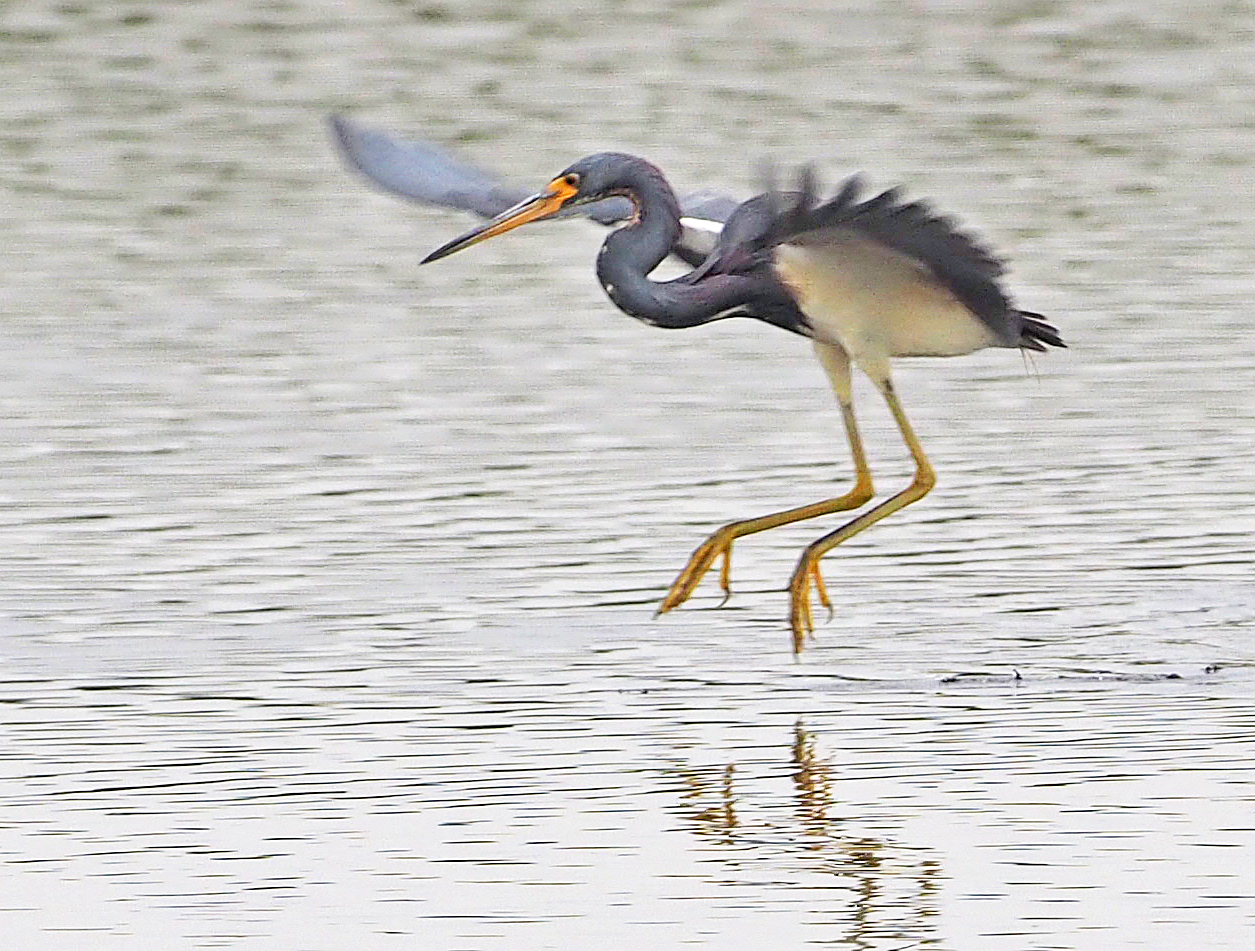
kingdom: Animalia
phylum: Chordata
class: Aves
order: Pelecaniformes
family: Ardeidae
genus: Egretta
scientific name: Egretta tricolor
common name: Tricolored heron
